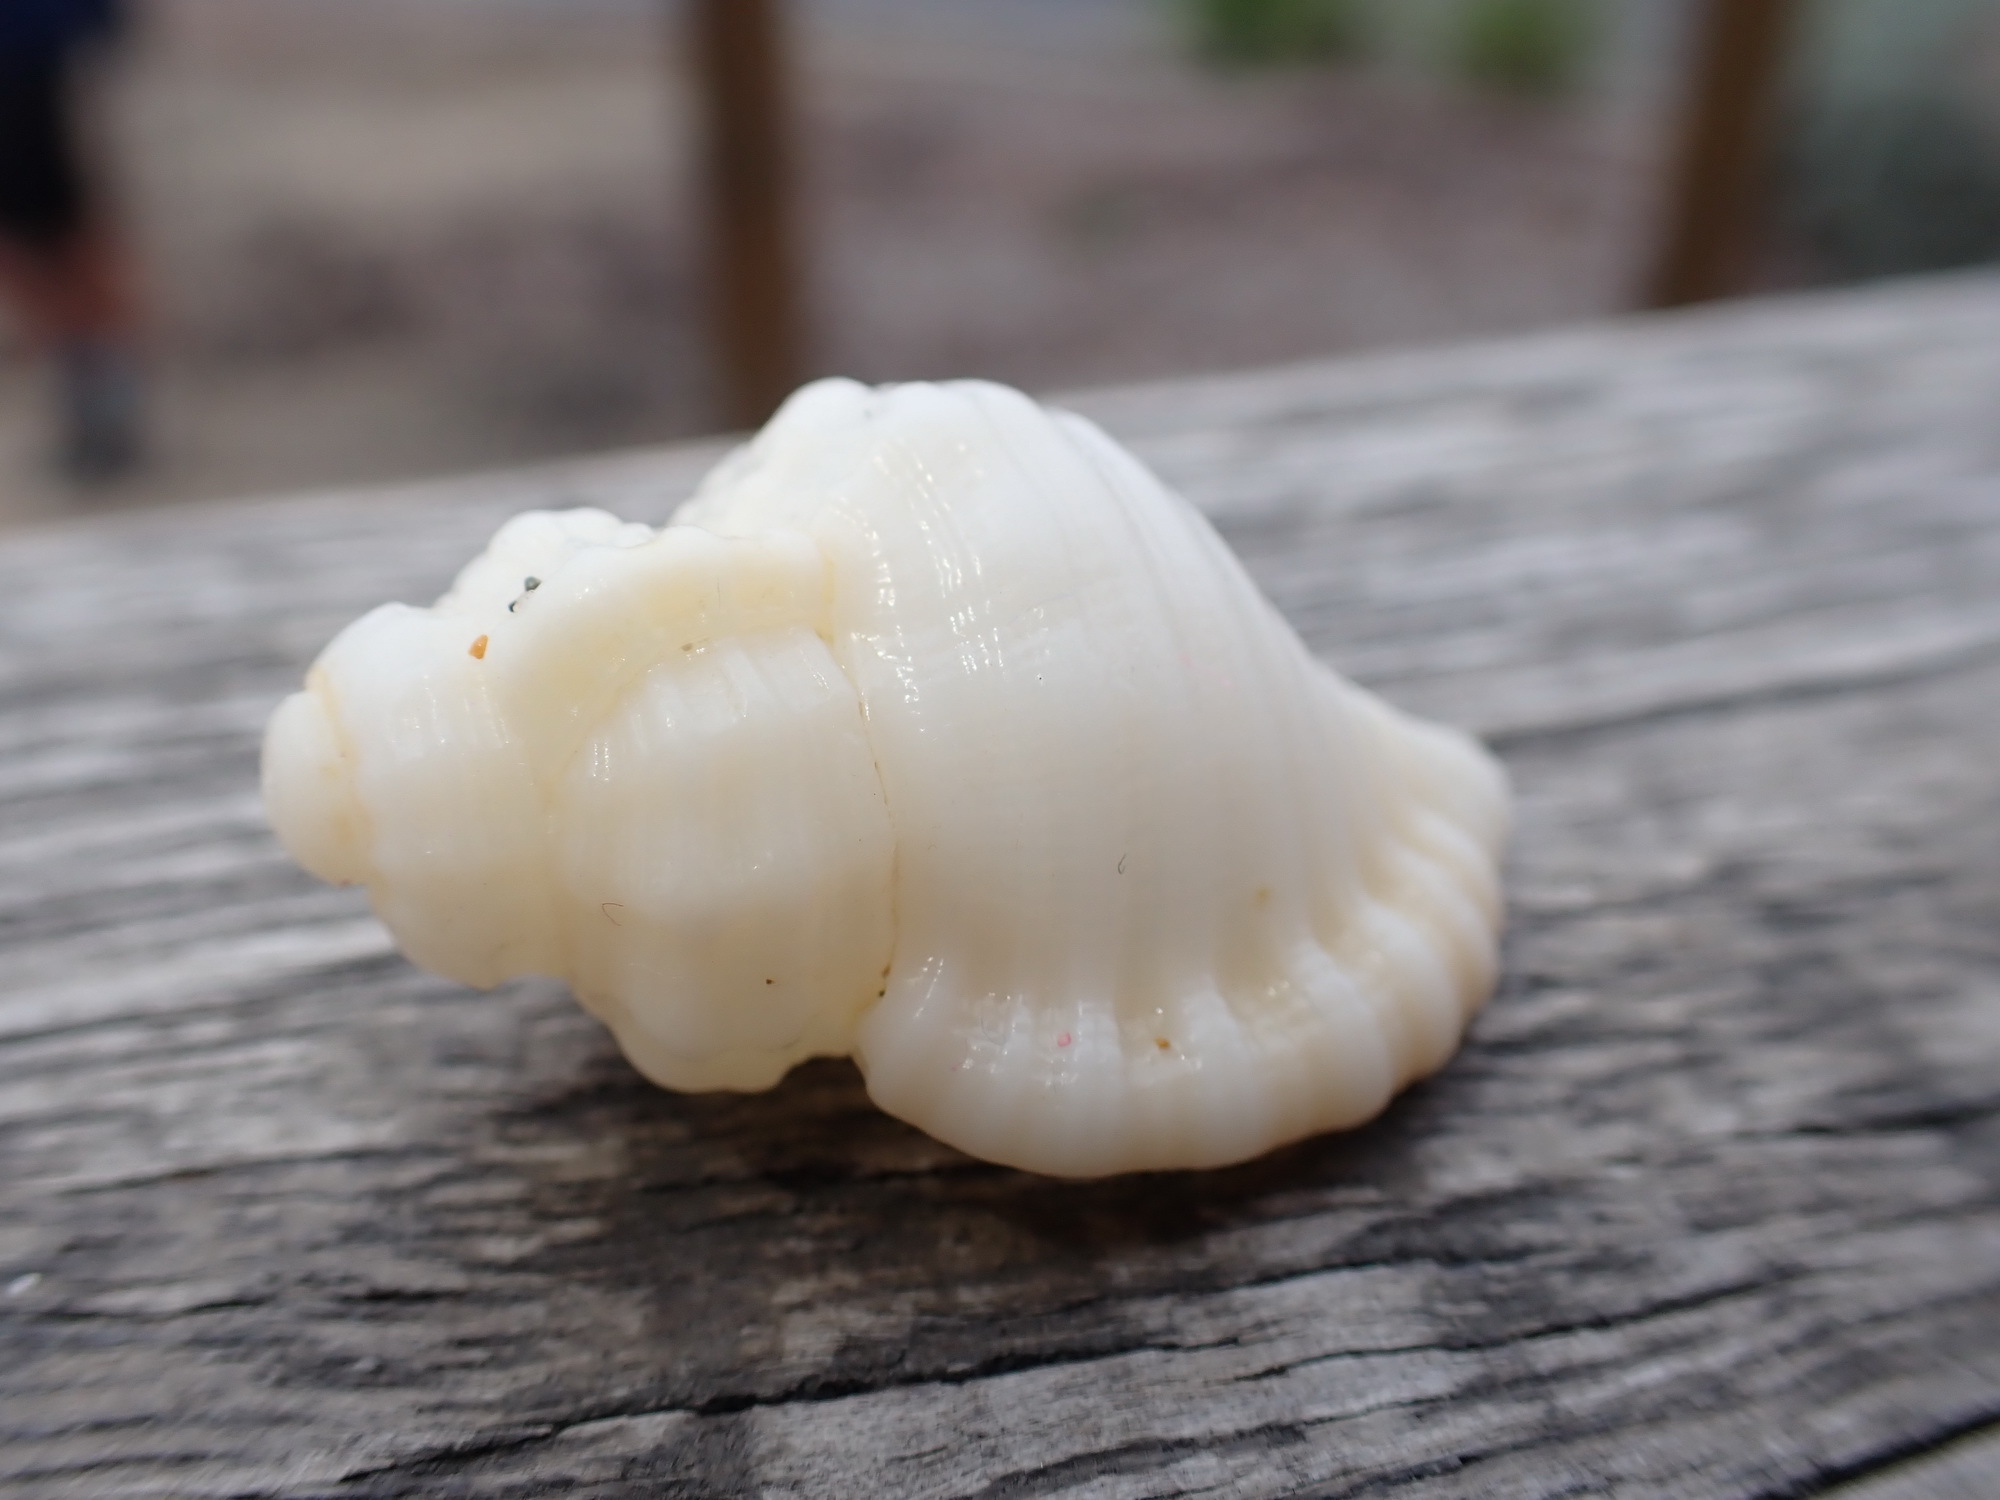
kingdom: Animalia
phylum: Mollusca
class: Gastropoda
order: Littorinimorpha
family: Cymatiidae
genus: Cabestana
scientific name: Cabestana tabulata
